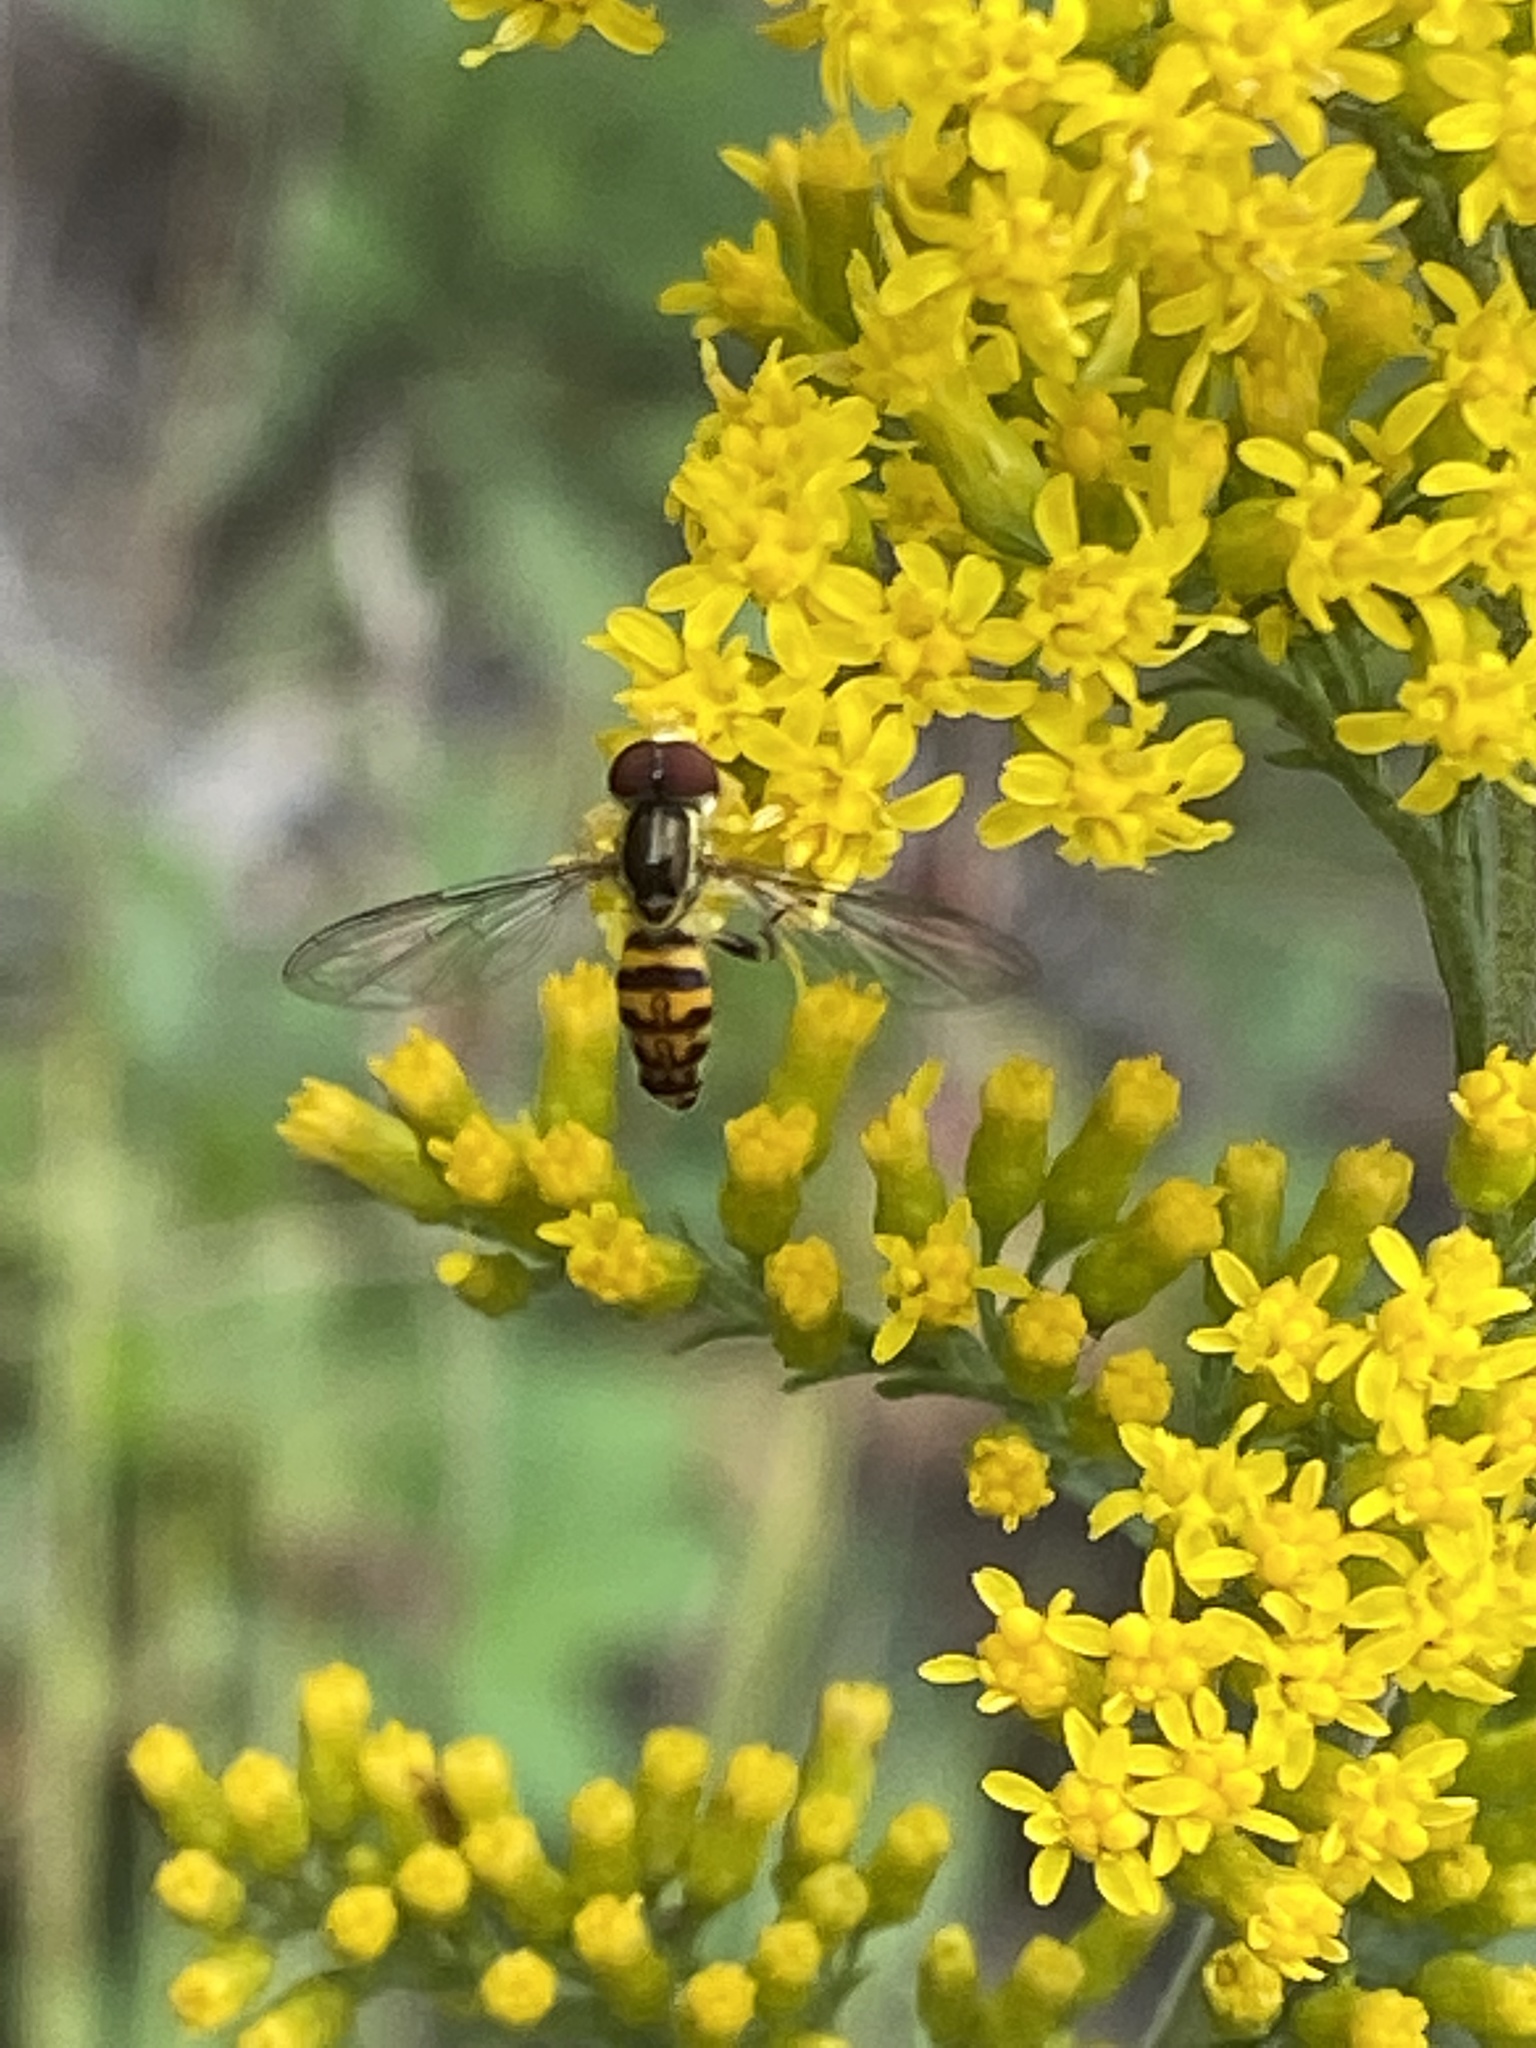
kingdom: Animalia
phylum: Arthropoda
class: Insecta
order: Diptera
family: Syrphidae
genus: Toxomerus
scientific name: Toxomerus geminatus
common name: Eastern calligrapher
